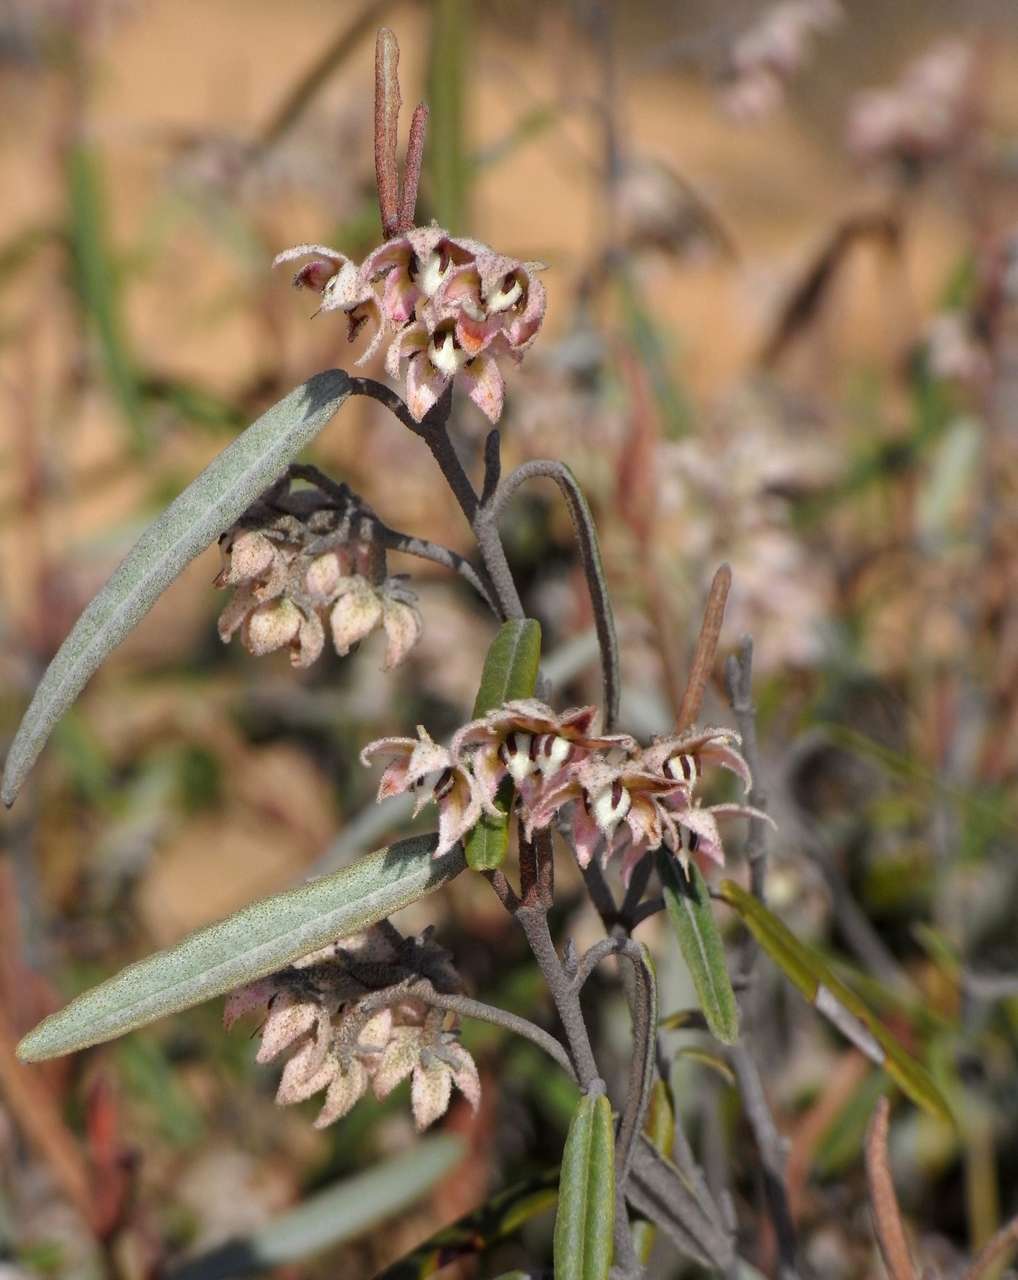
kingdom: Plantae
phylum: Tracheophyta
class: Magnoliopsida
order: Malvales
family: Malvaceae
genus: Lasiopetalum
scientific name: Lasiopetalum behrii
